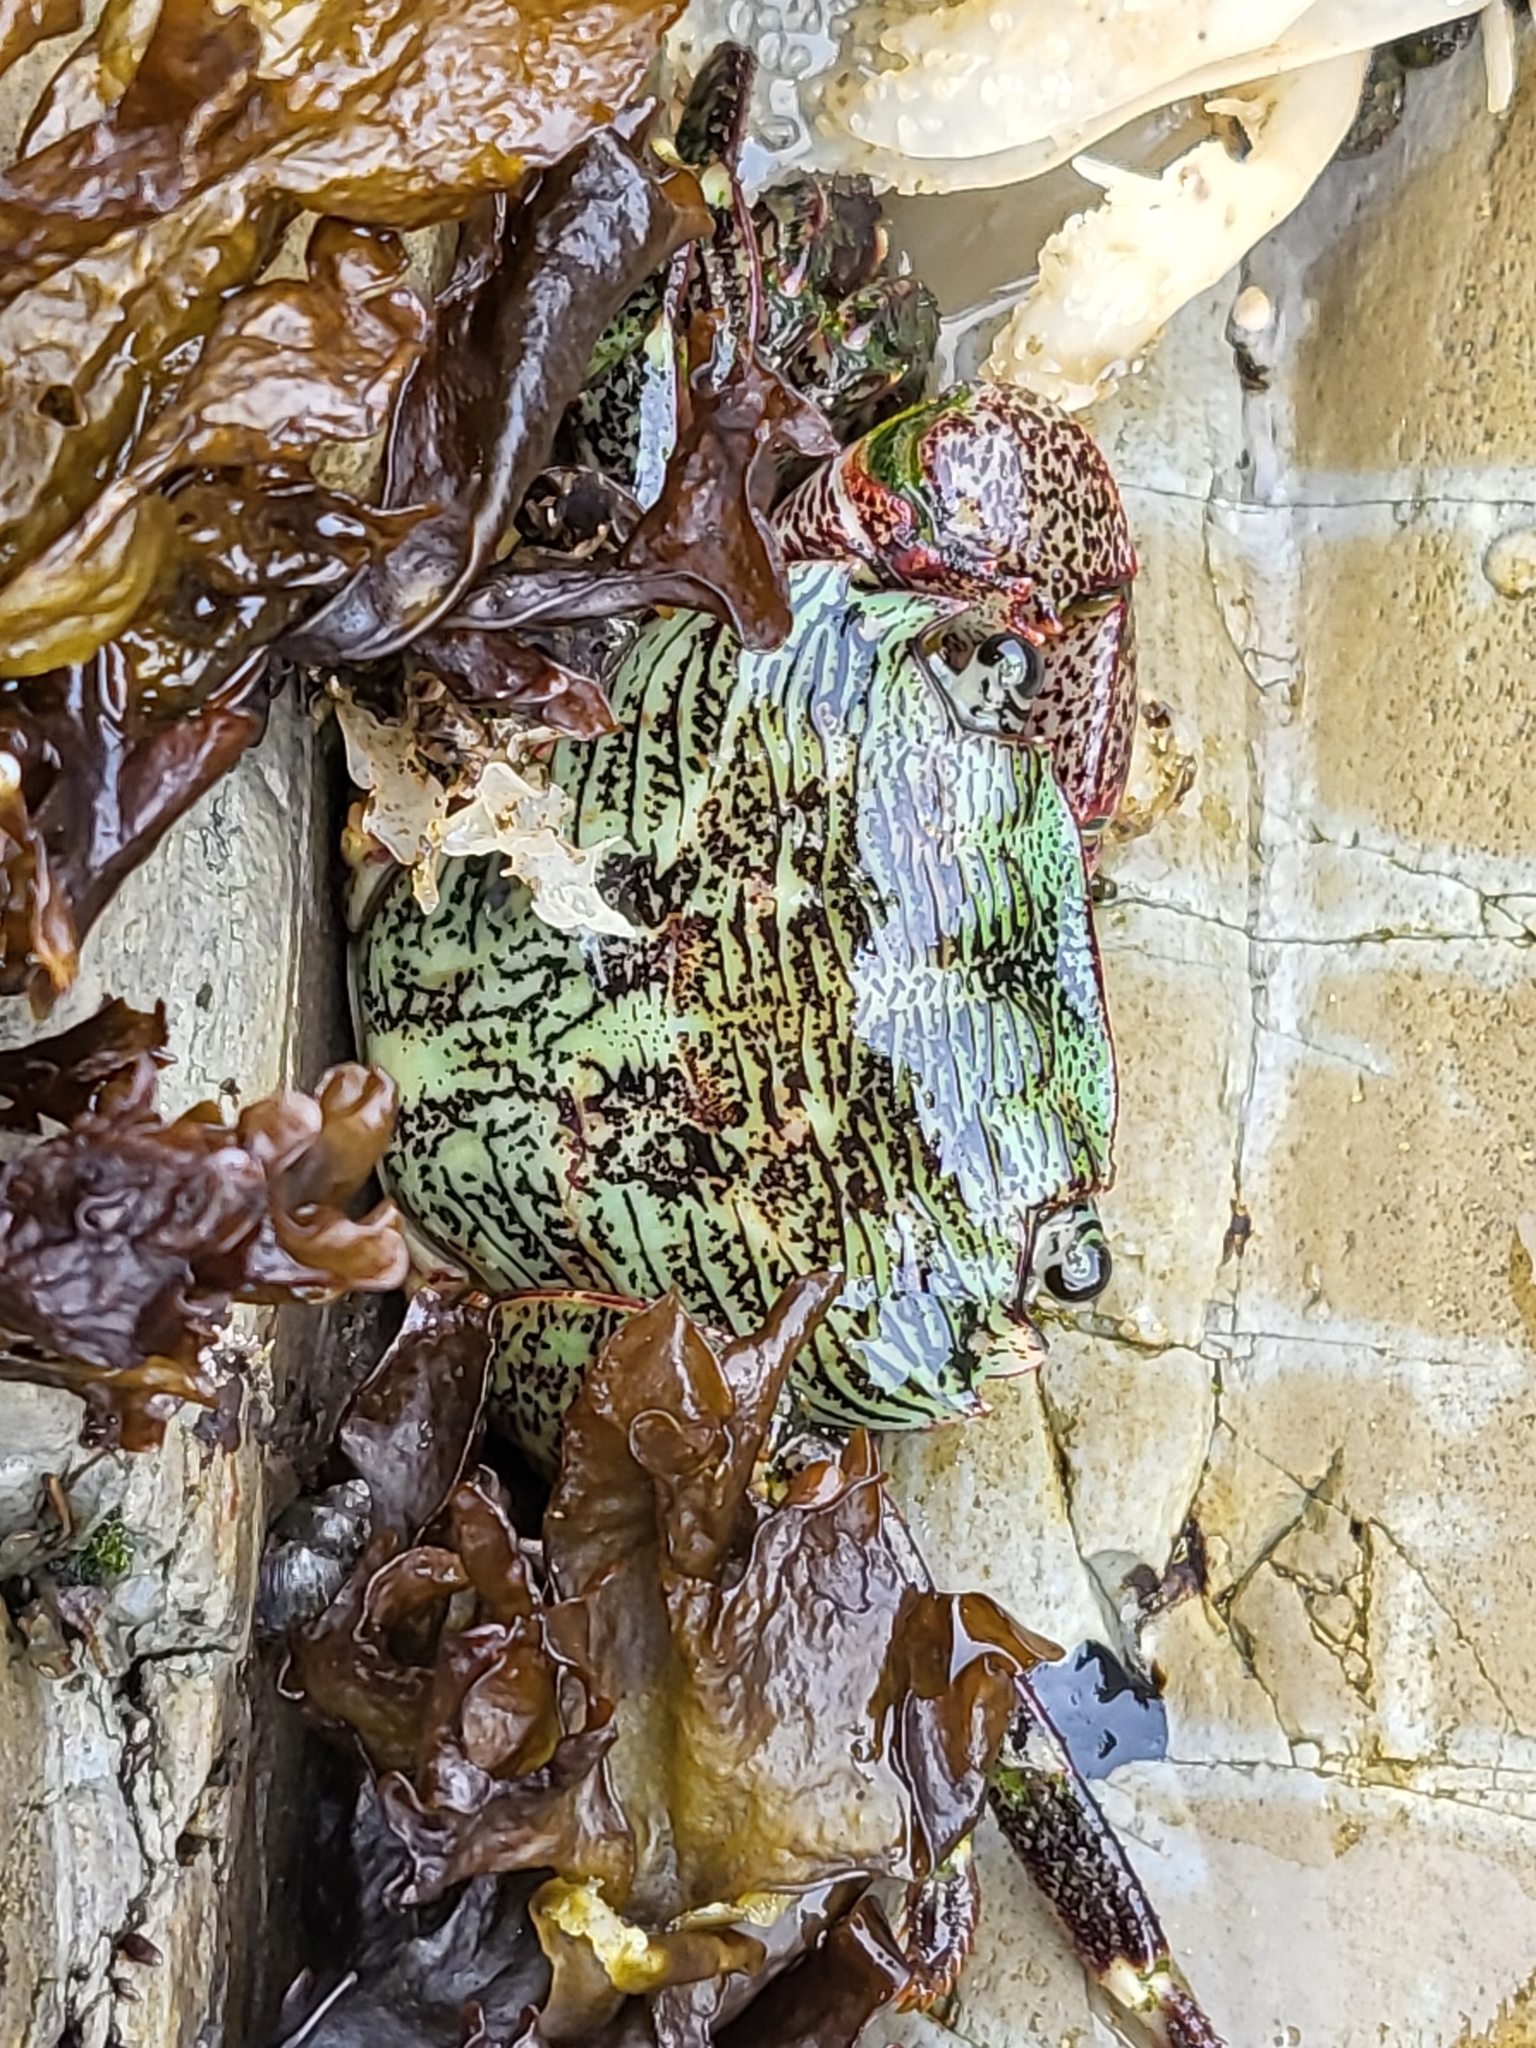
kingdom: Animalia
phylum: Arthropoda
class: Malacostraca
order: Decapoda
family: Grapsidae
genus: Pachygrapsus
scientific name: Pachygrapsus crassipes
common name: Striped shore crab
